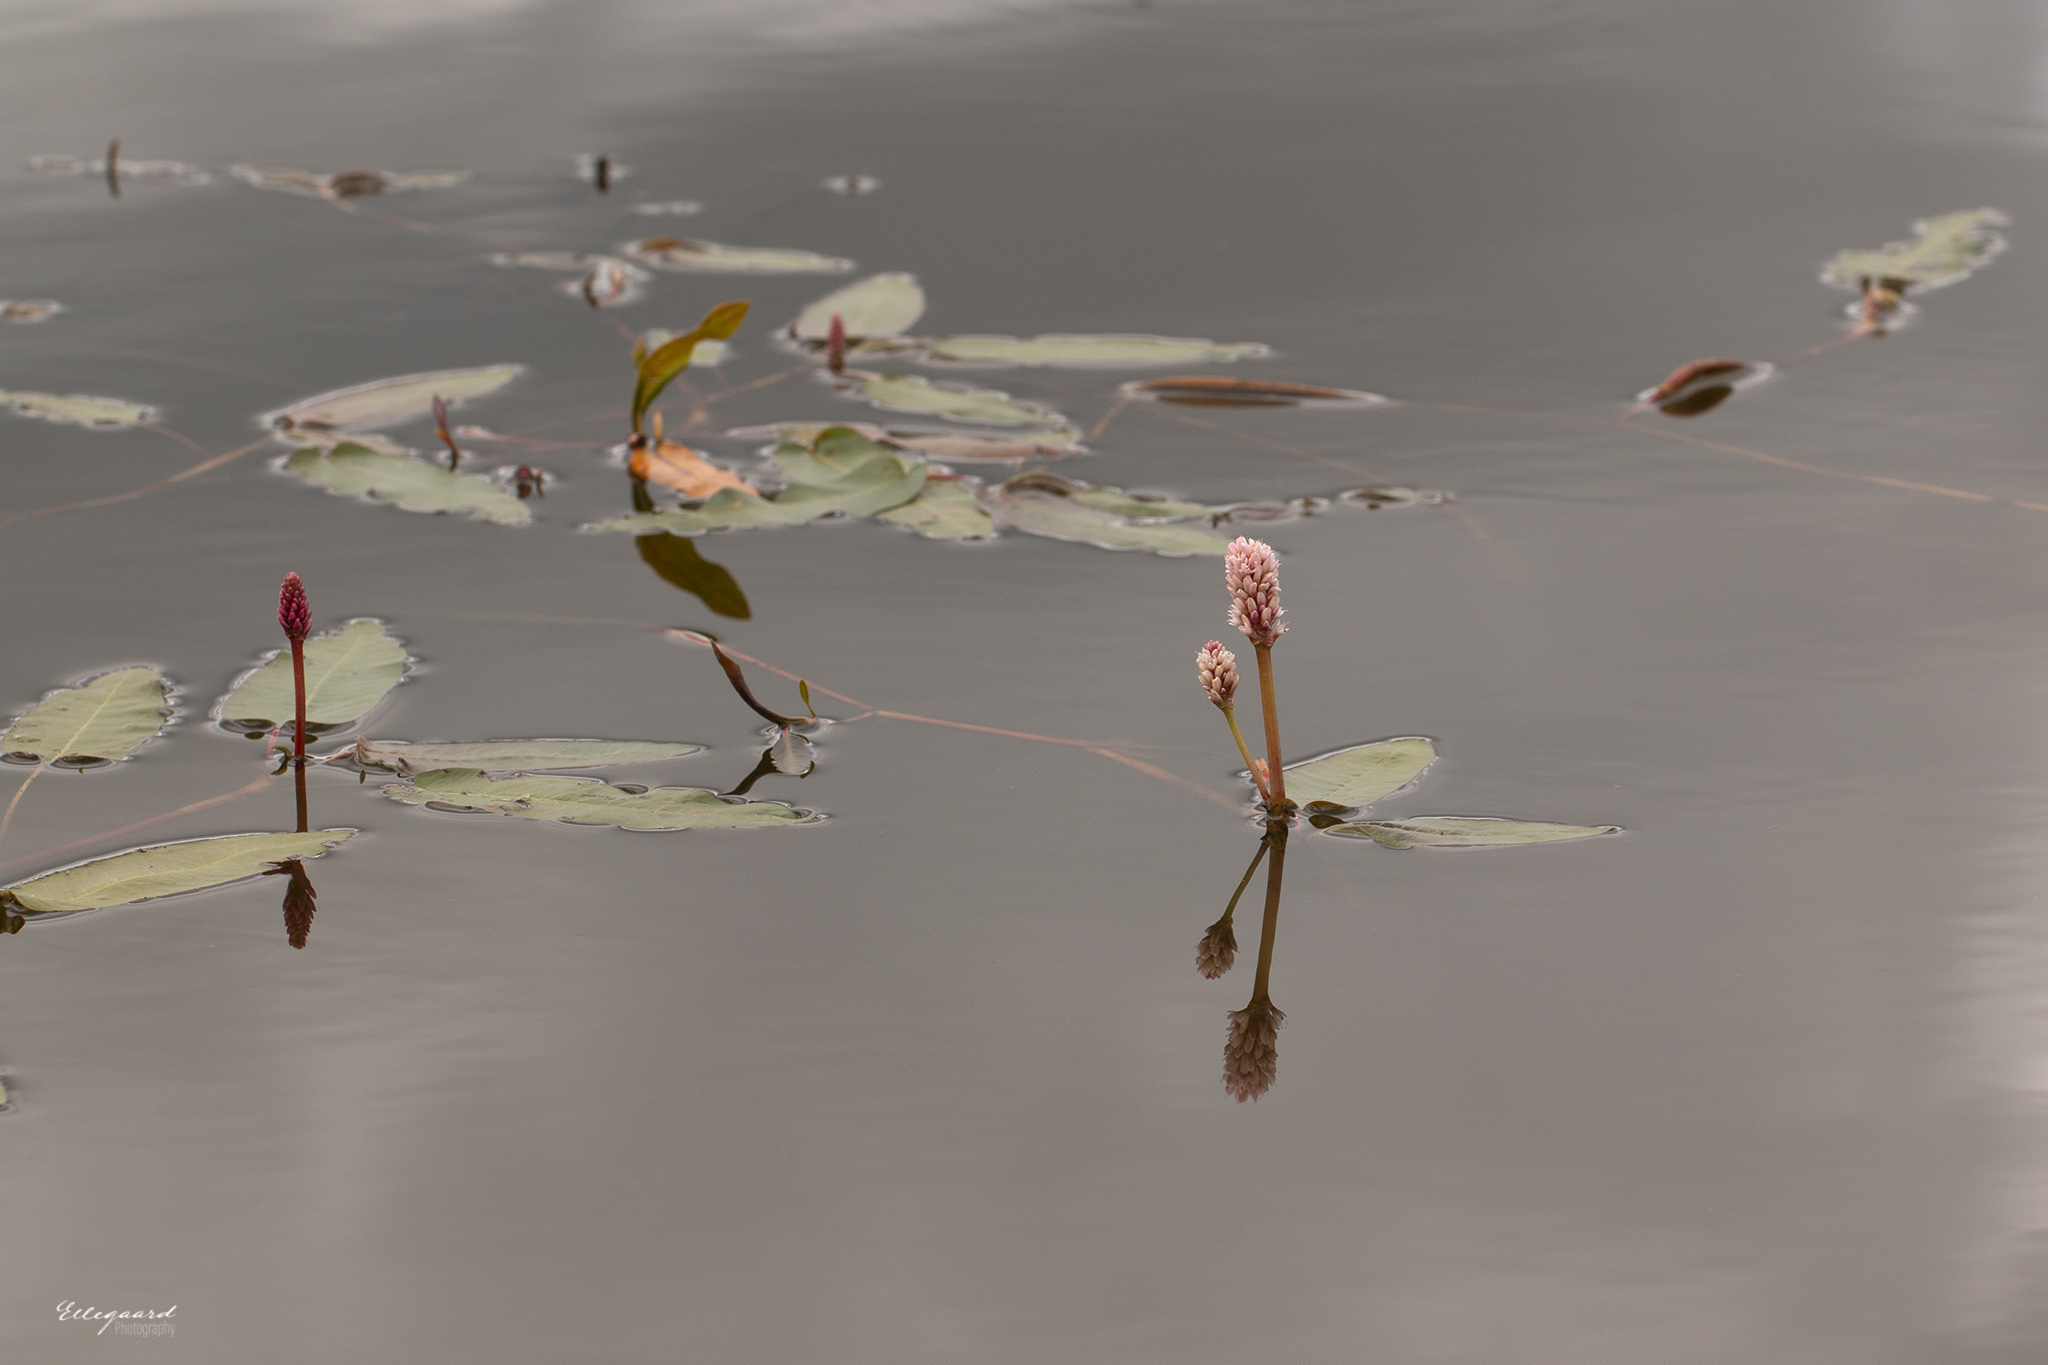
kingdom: Plantae
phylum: Tracheophyta
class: Magnoliopsida
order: Caryophyllales
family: Polygonaceae
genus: Persicaria
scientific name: Persicaria amphibia
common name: Amphibious bistort
